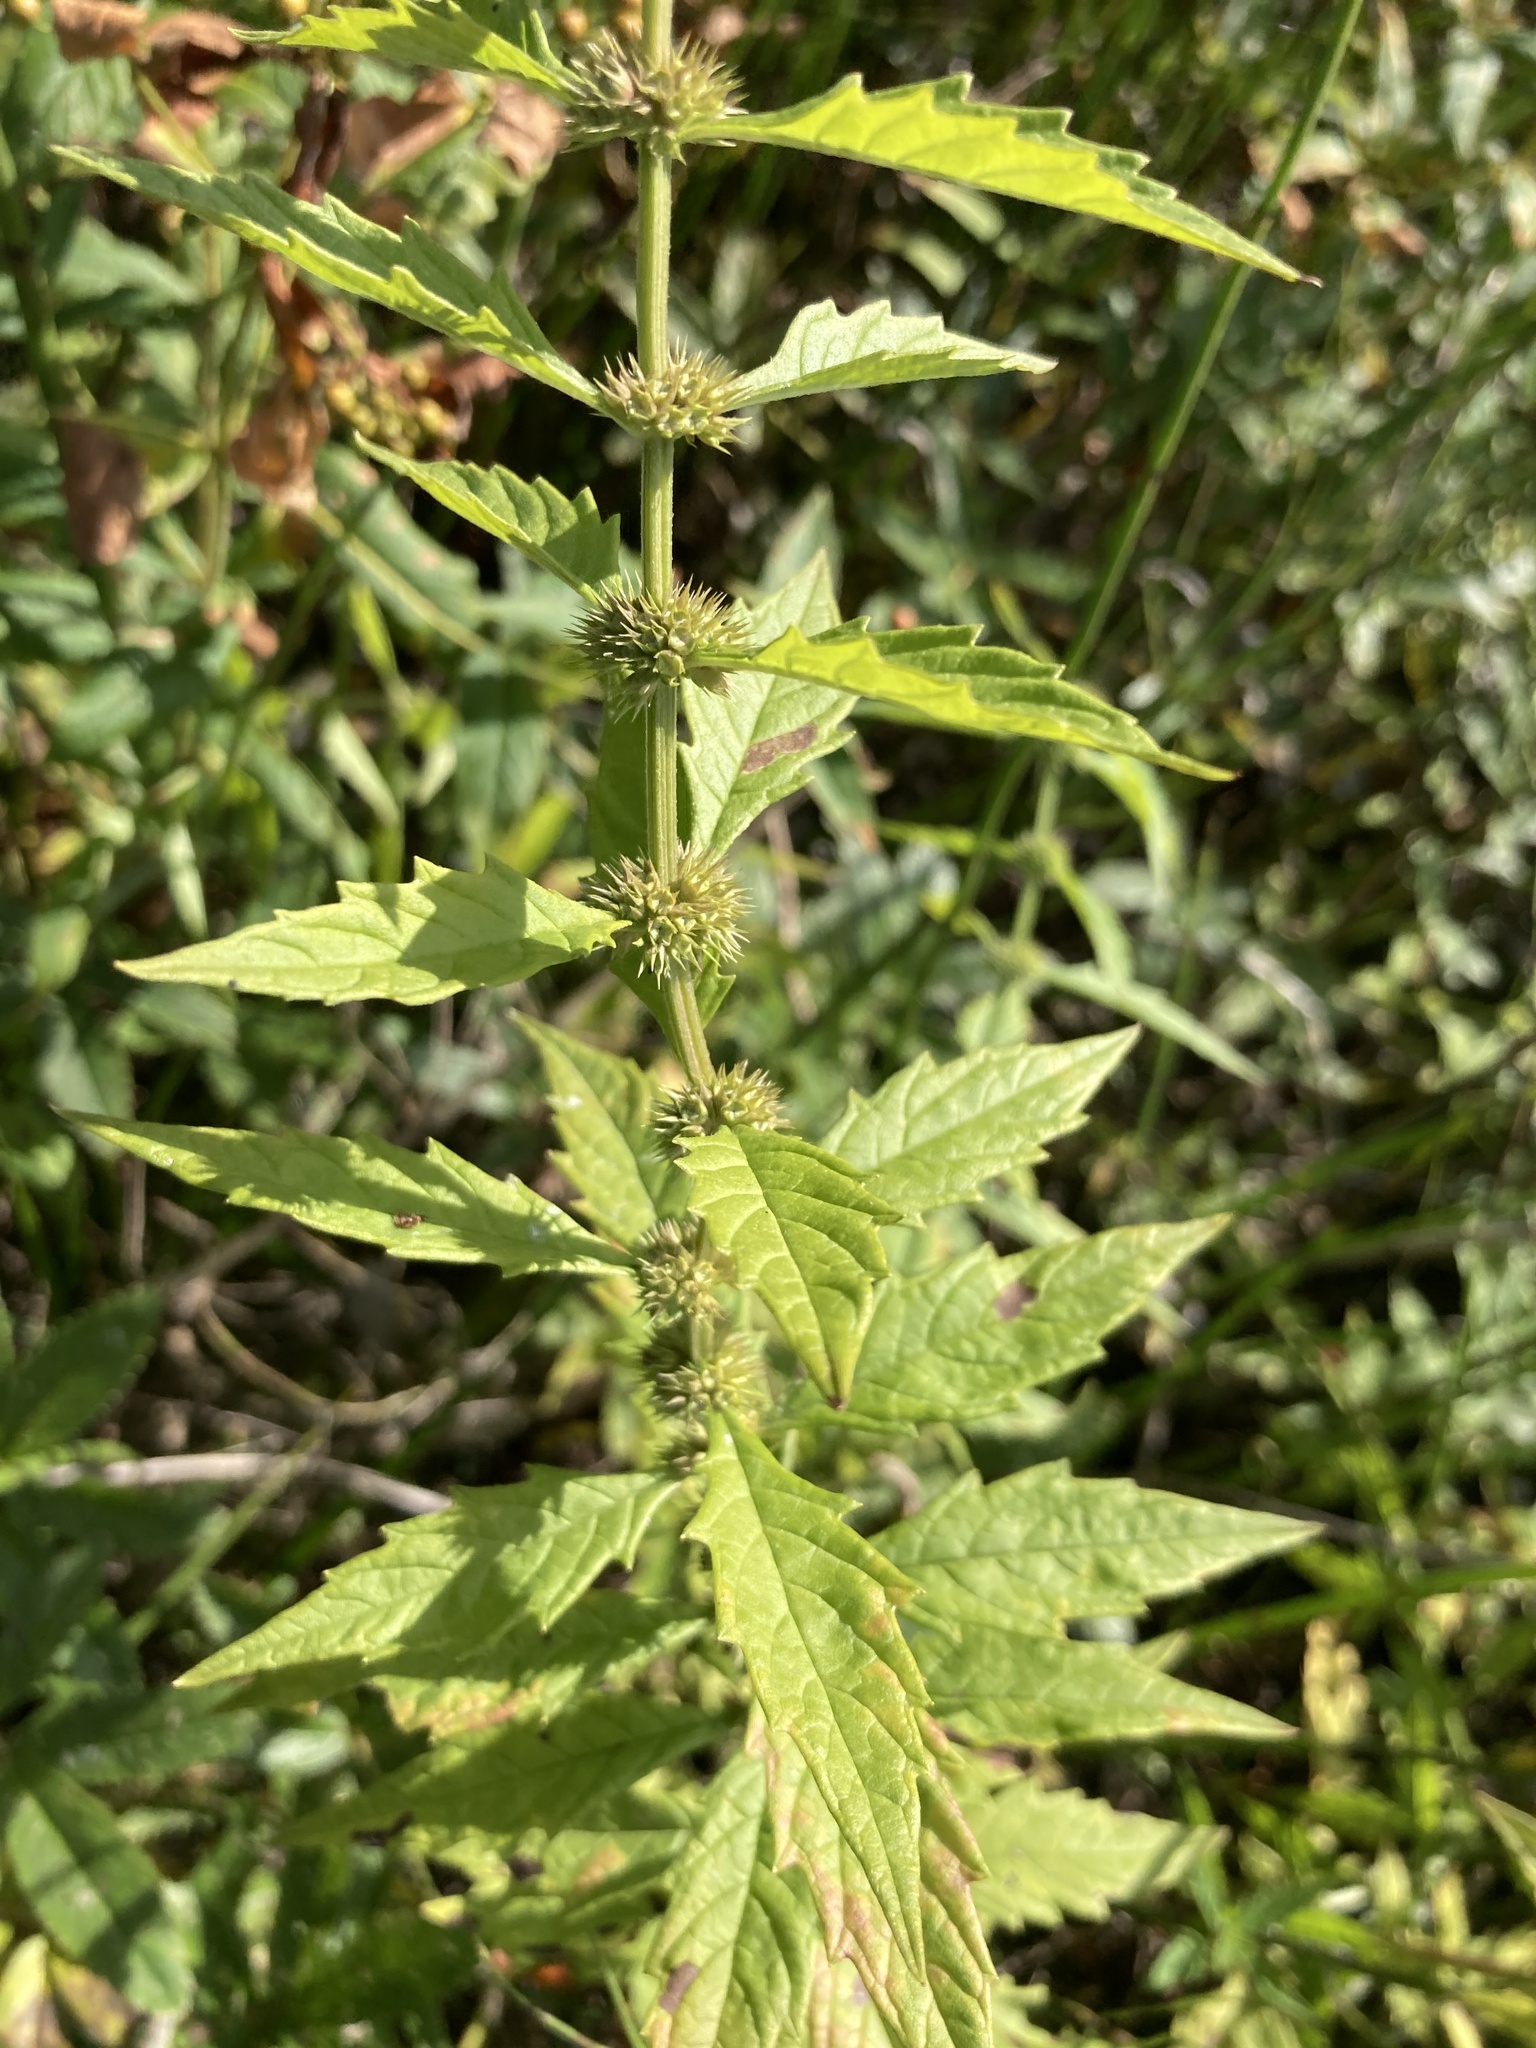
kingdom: Plantae
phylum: Tracheophyta
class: Magnoliopsida
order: Lamiales
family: Lamiaceae
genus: Lycopus
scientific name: Lycopus europaeus
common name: European bugleweed
